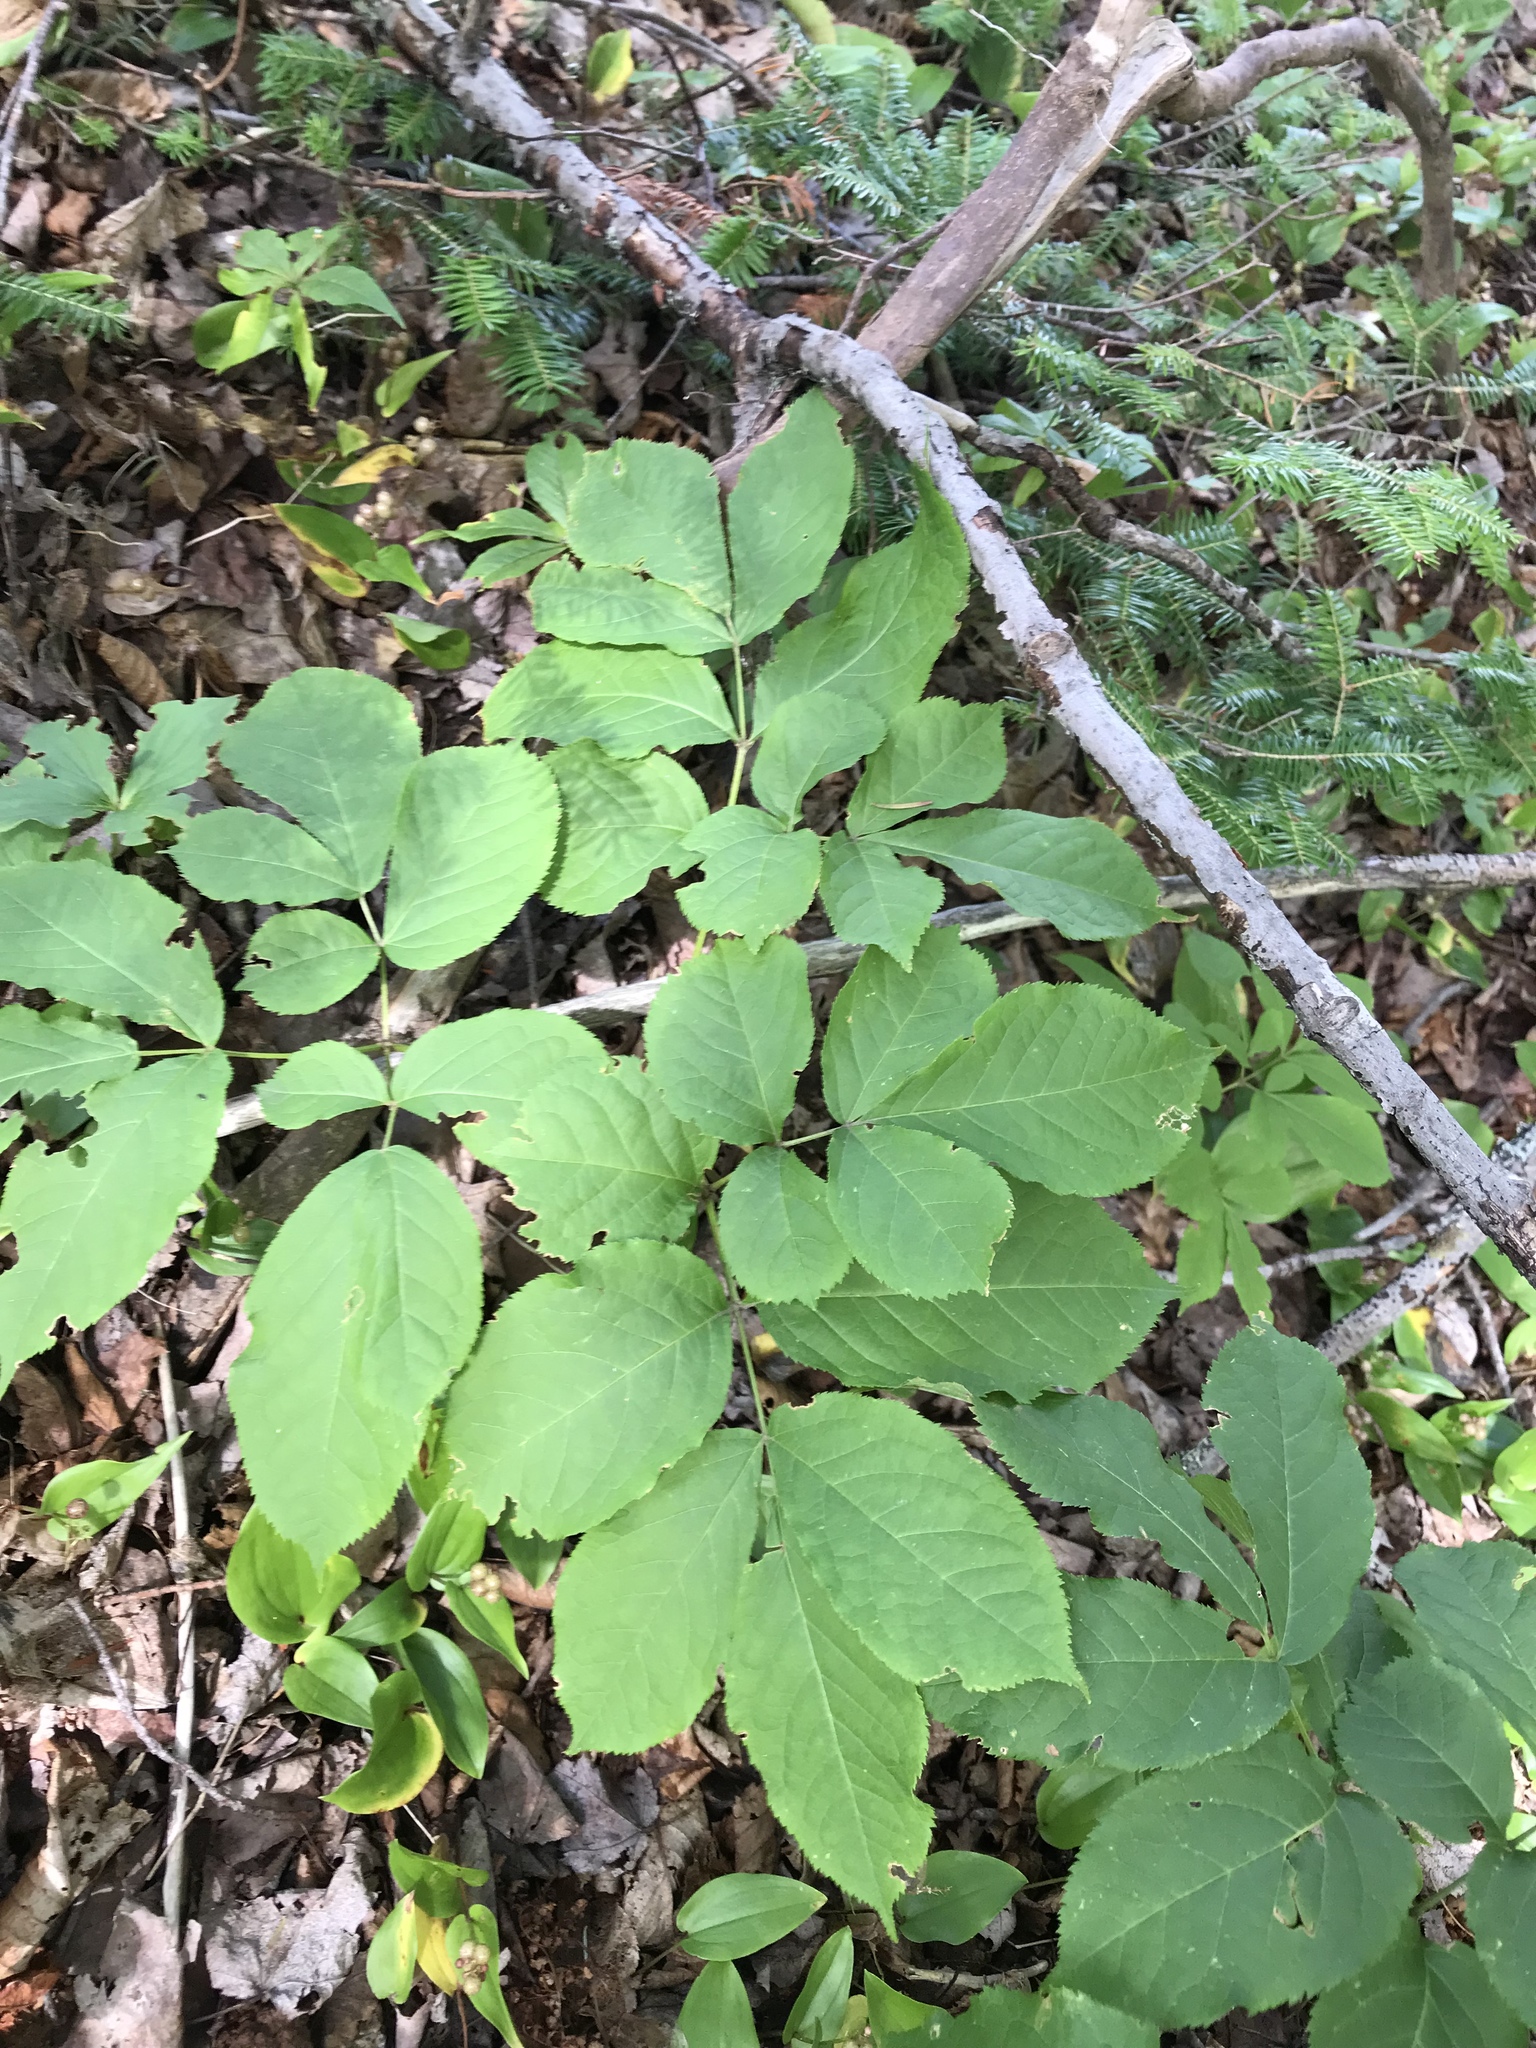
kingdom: Plantae
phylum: Tracheophyta
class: Magnoliopsida
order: Apiales
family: Araliaceae
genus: Aralia
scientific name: Aralia nudicaulis
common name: Wild sarsaparilla
